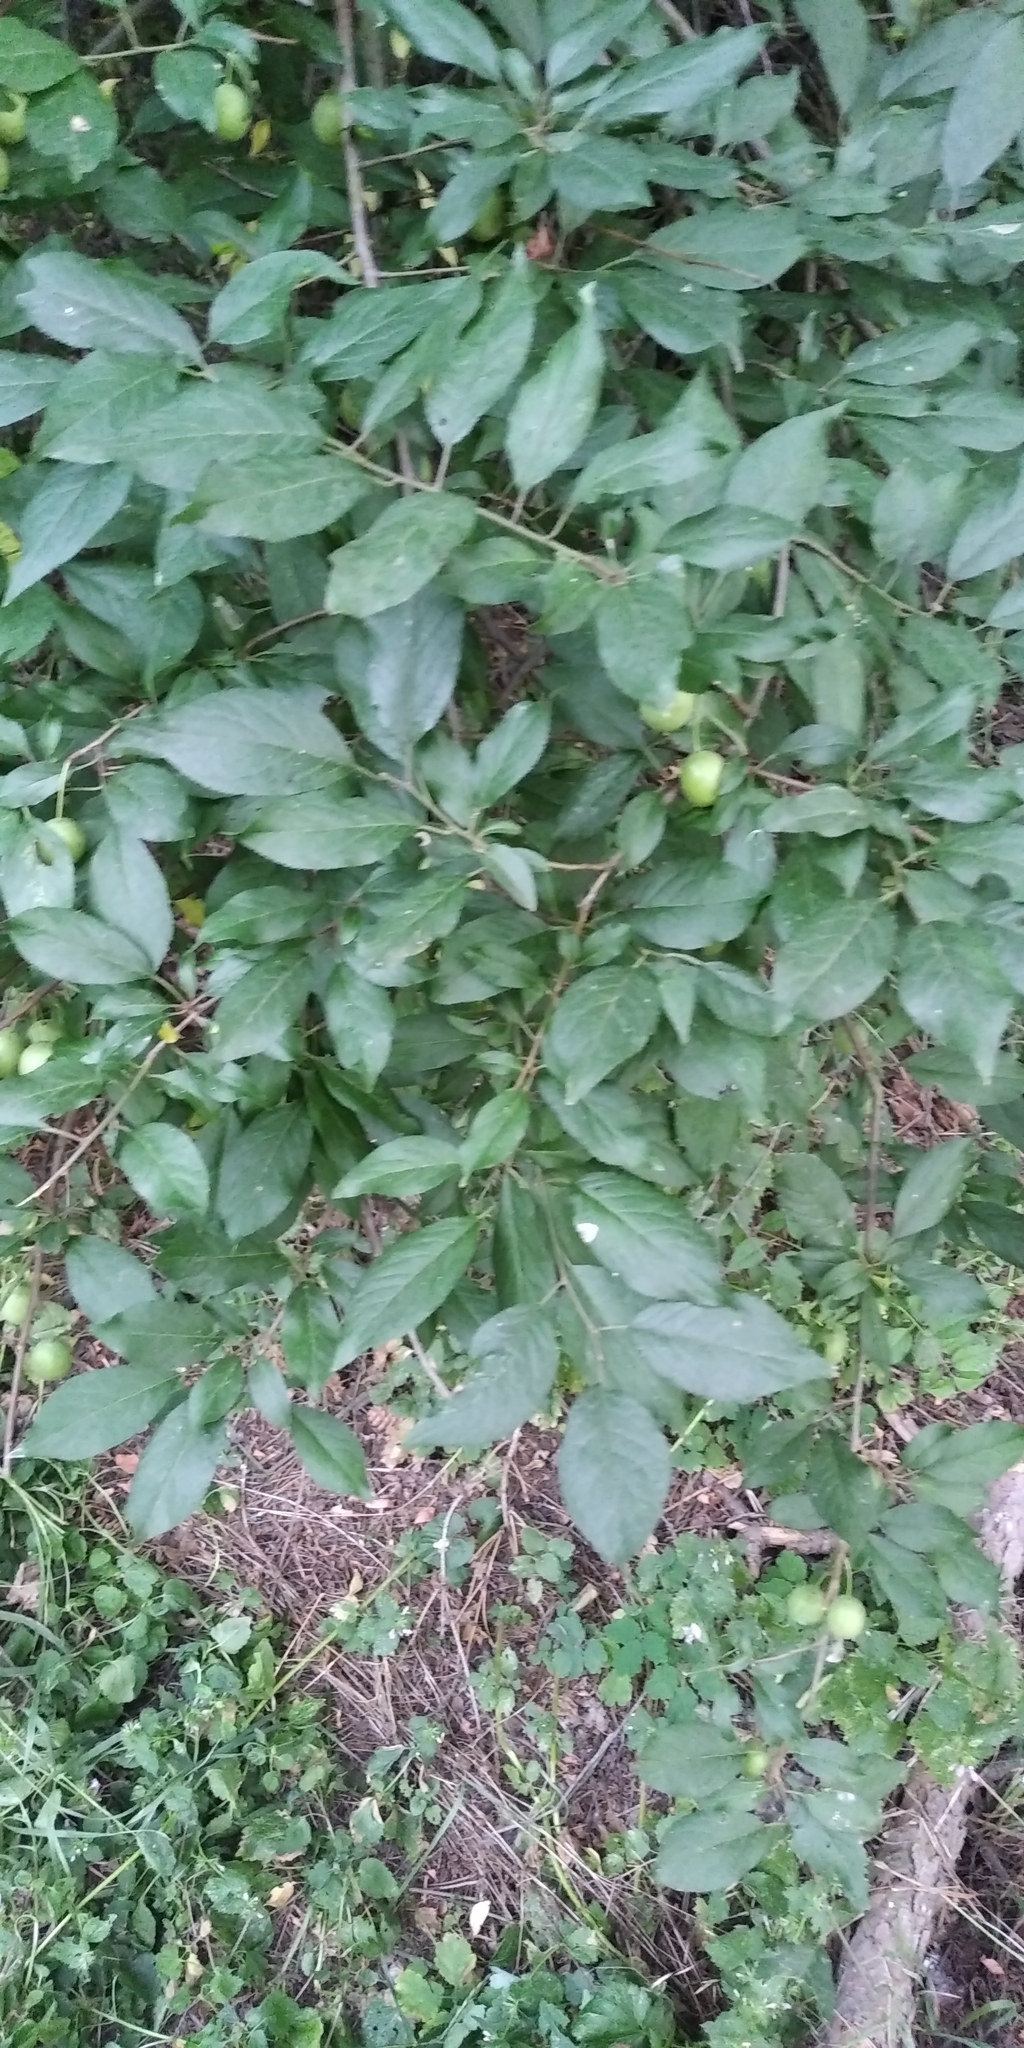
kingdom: Plantae
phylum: Tracheophyta
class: Magnoliopsida
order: Rosales
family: Rosaceae
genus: Prunus
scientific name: Prunus cerasifera
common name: Cherry plum
